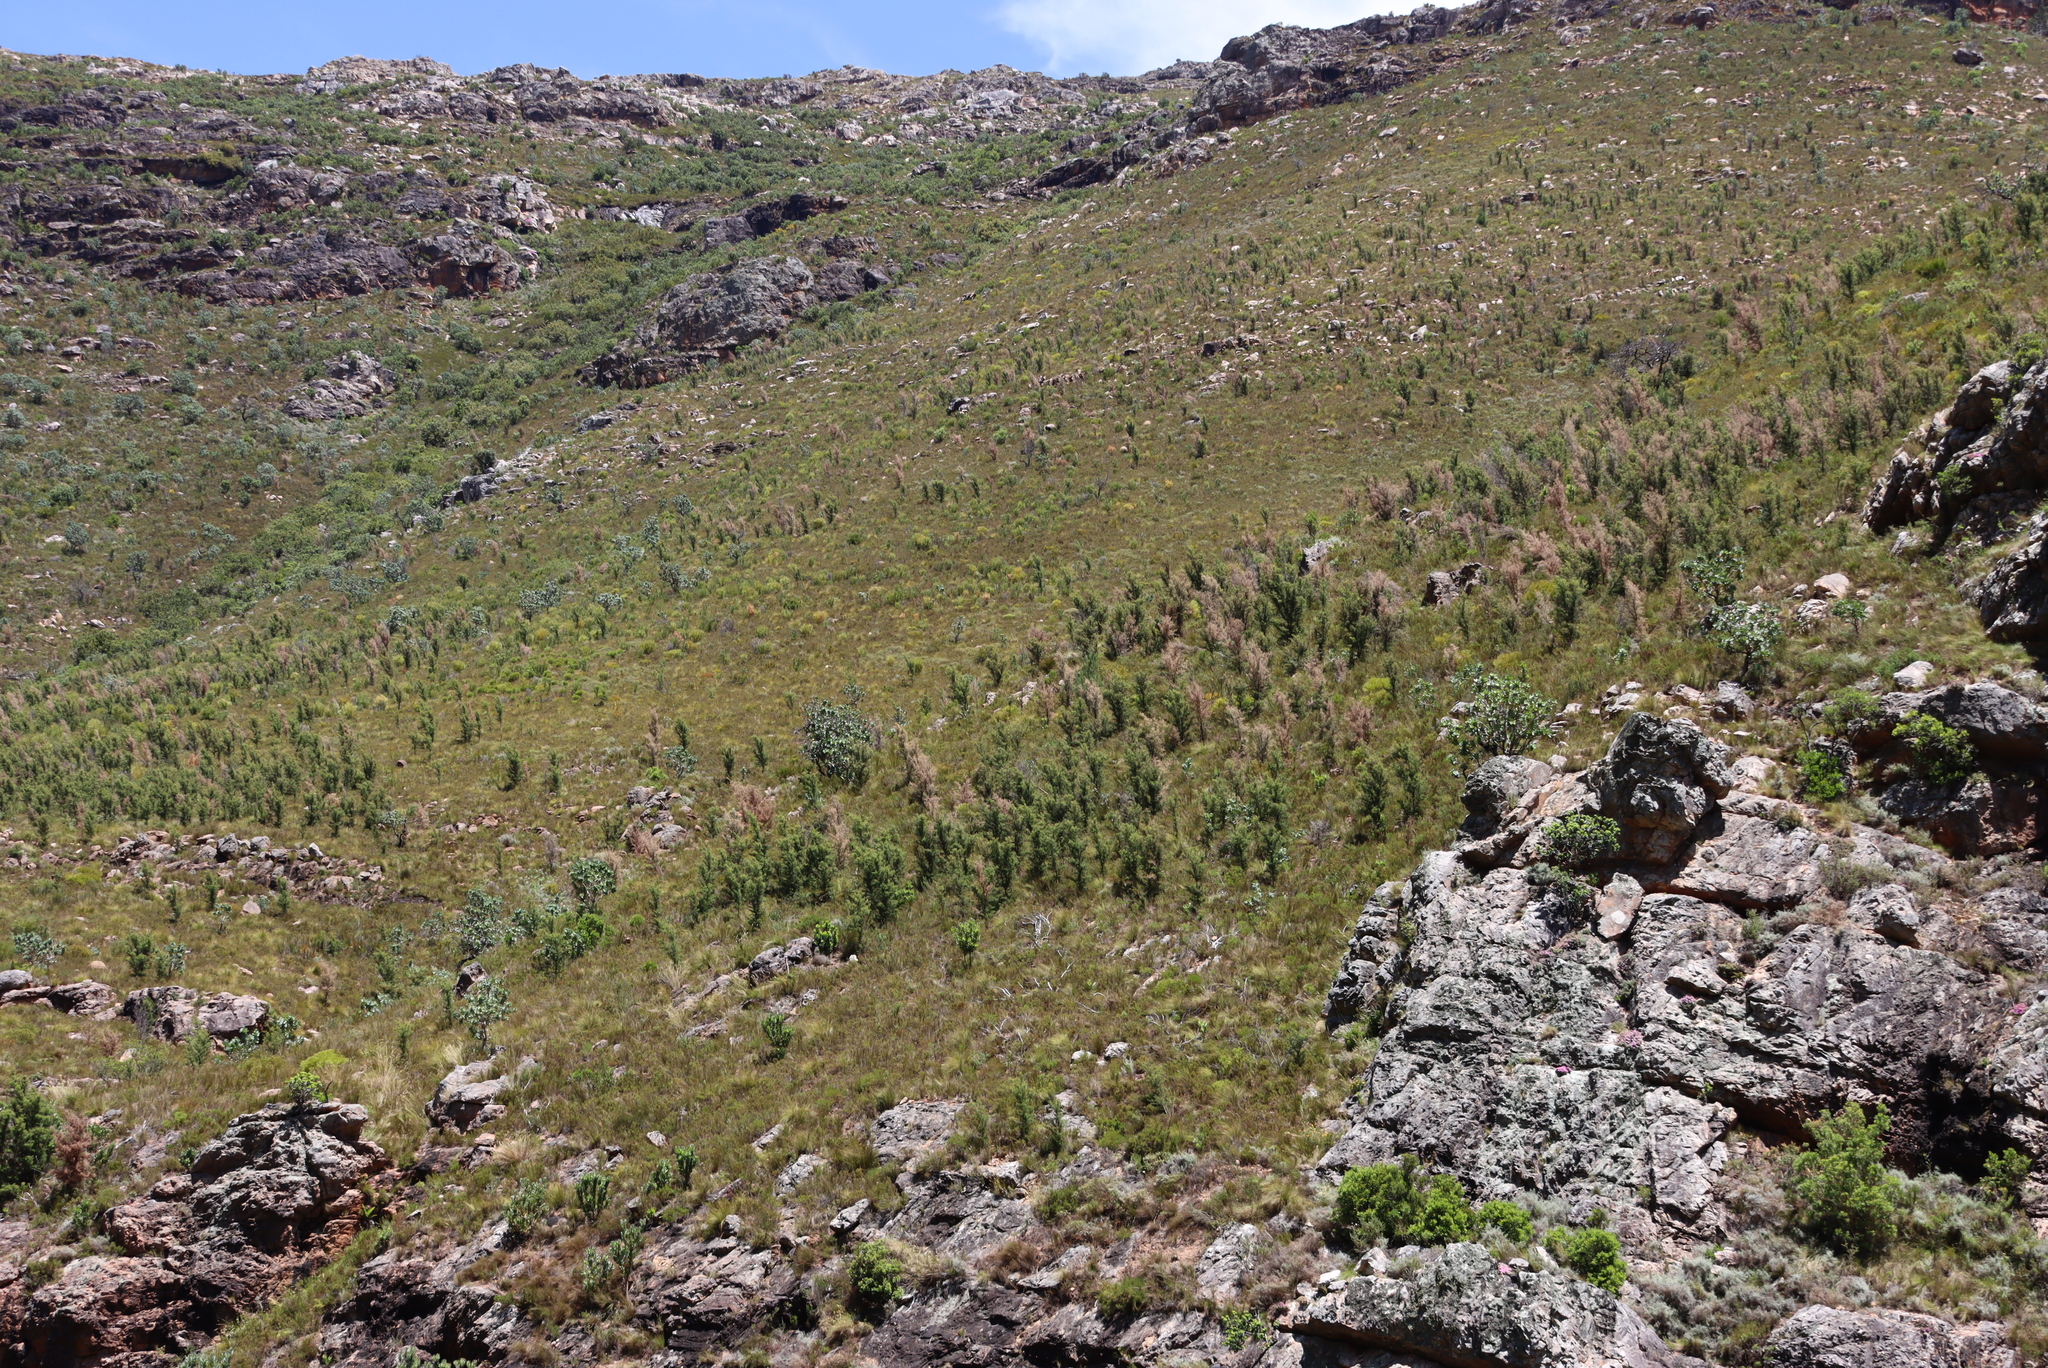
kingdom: Plantae
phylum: Tracheophyta
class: Magnoliopsida
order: Proteales
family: Proteaceae
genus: Hakea
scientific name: Hakea sericea
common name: Needle bush
